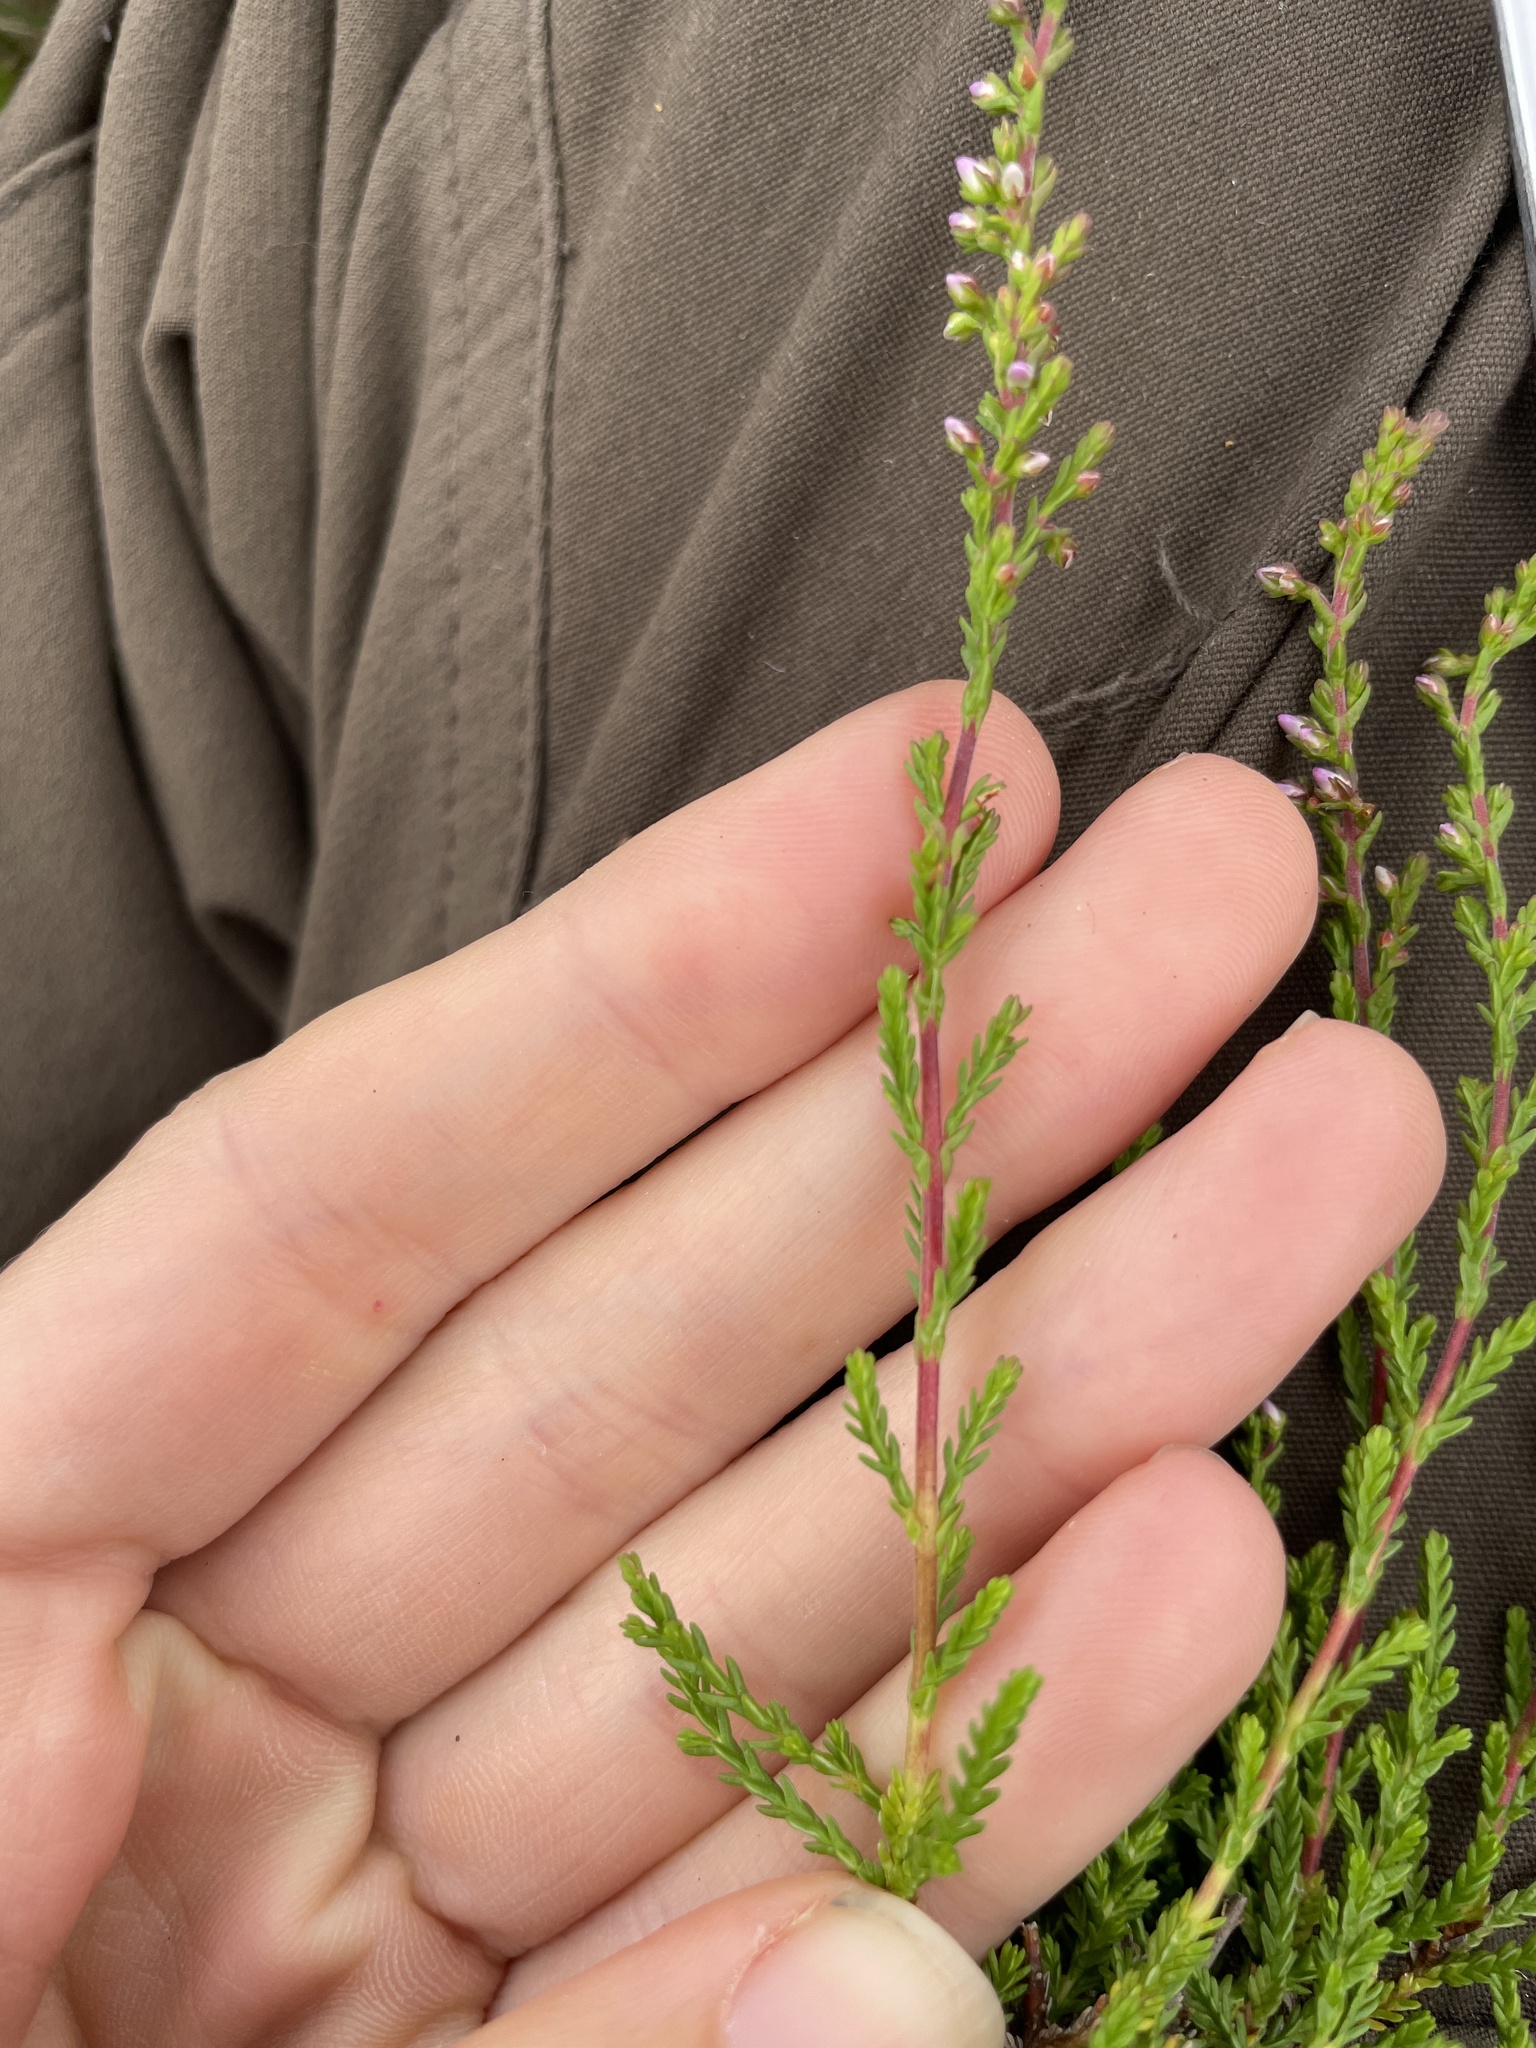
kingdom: Plantae
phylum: Tracheophyta
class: Magnoliopsida
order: Ericales
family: Ericaceae
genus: Calluna
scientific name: Calluna vulgaris
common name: Heather
